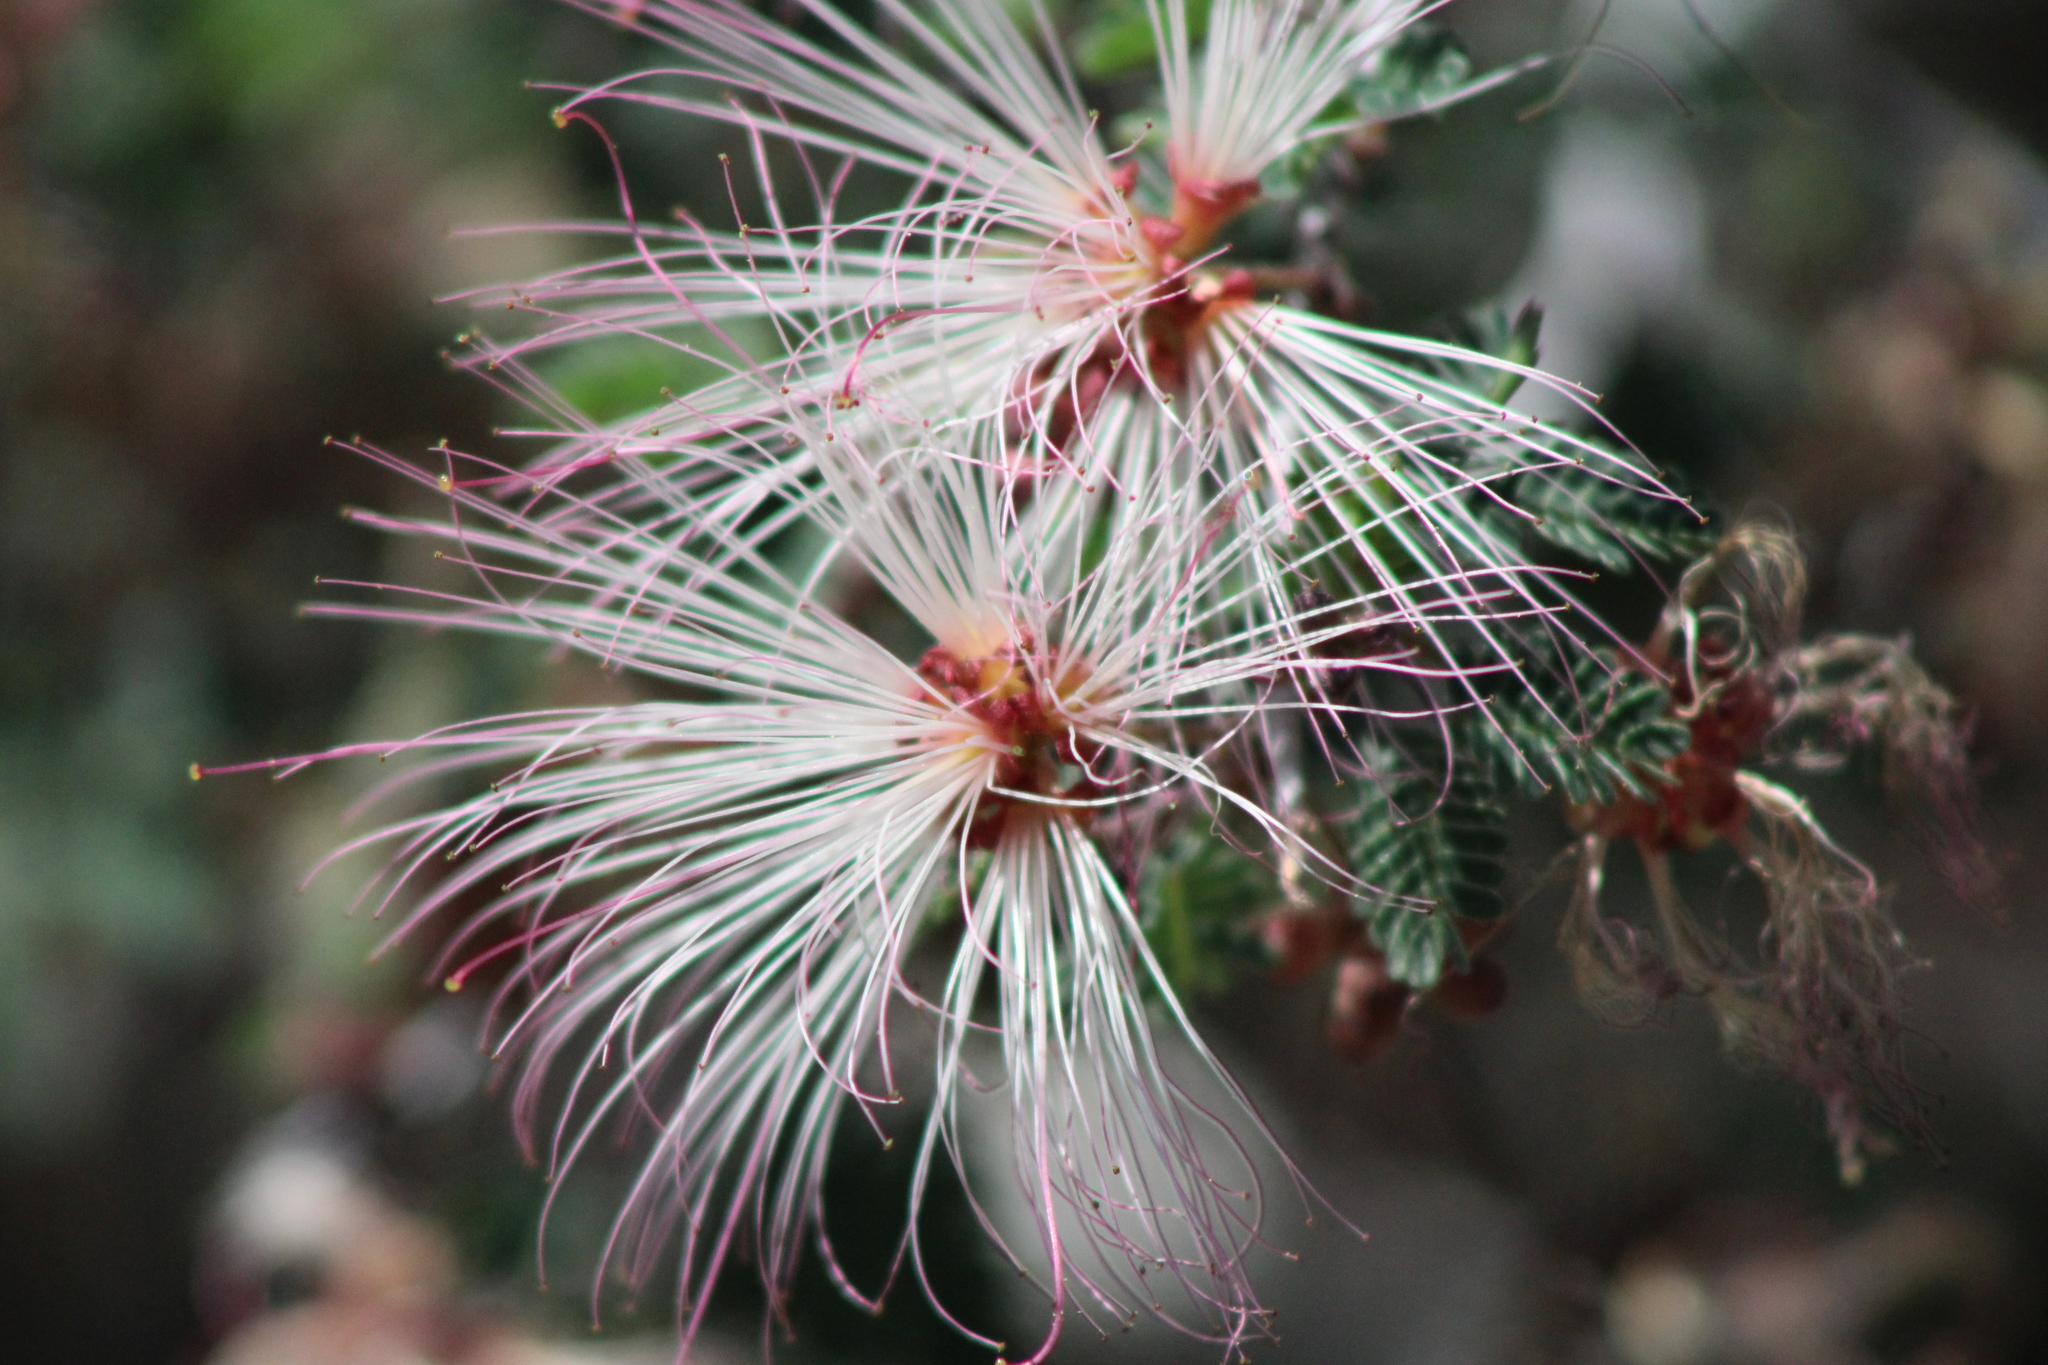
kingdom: Plantae
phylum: Tracheophyta
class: Magnoliopsida
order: Fabales
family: Fabaceae
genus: Calliandra
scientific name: Calliandra eriophylla
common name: Fairy-duster
